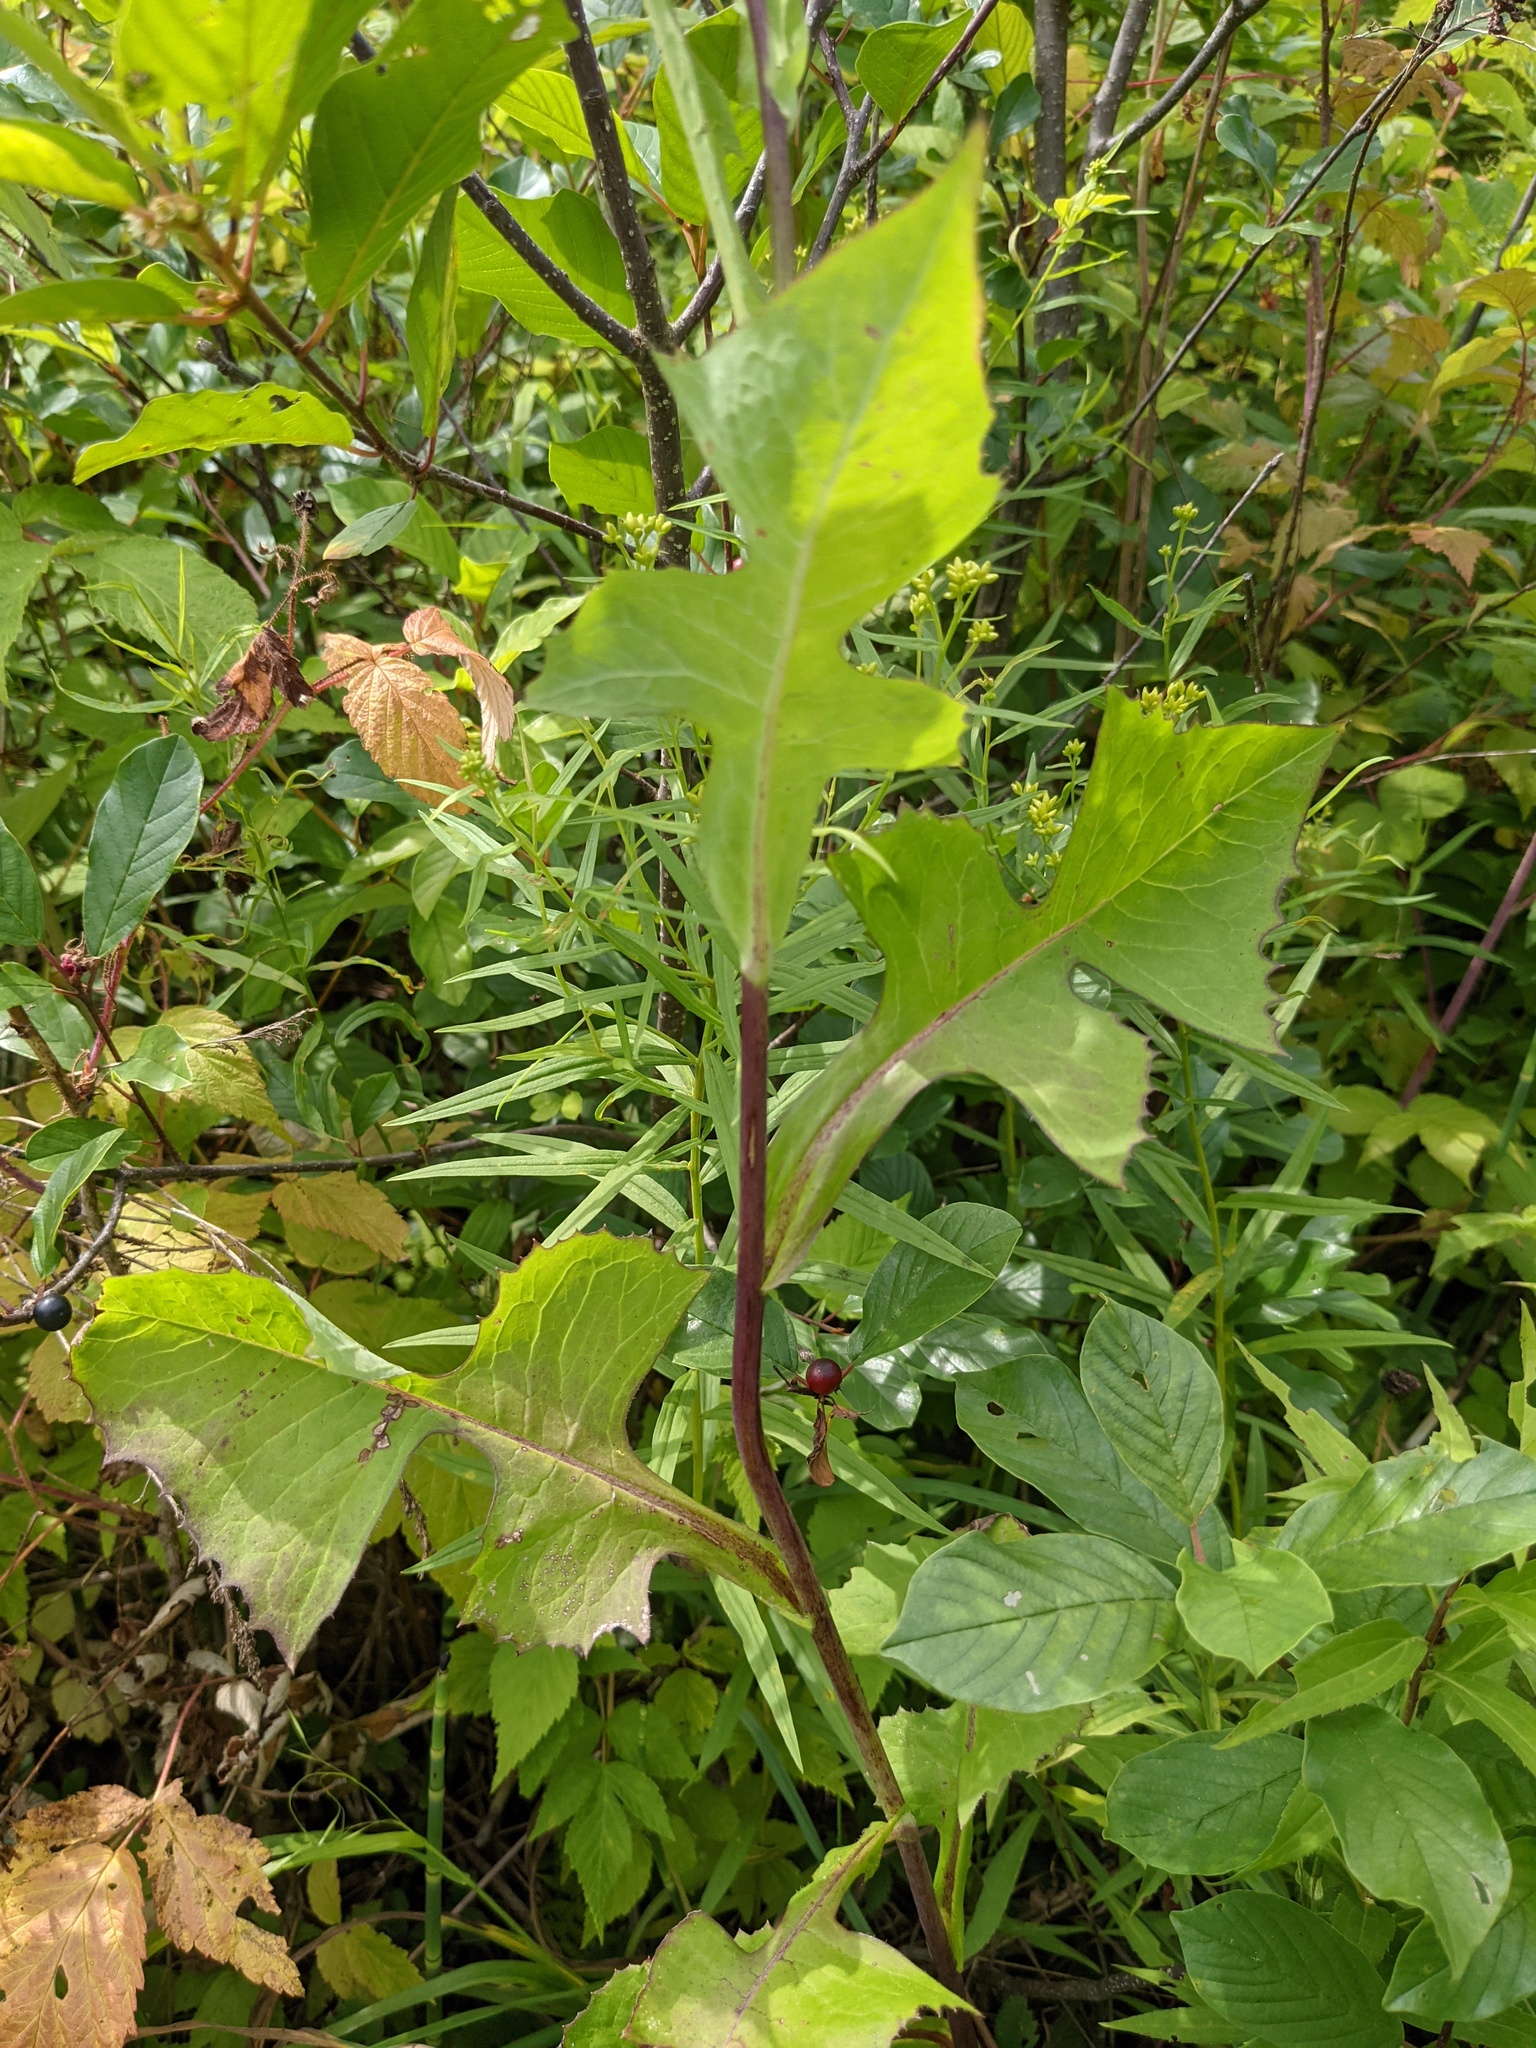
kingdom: Plantae
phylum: Tracheophyta
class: Magnoliopsida
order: Asterales
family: Asteraceae
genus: Lactuca
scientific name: Lactuca biennis
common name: Blue wood lettuce
